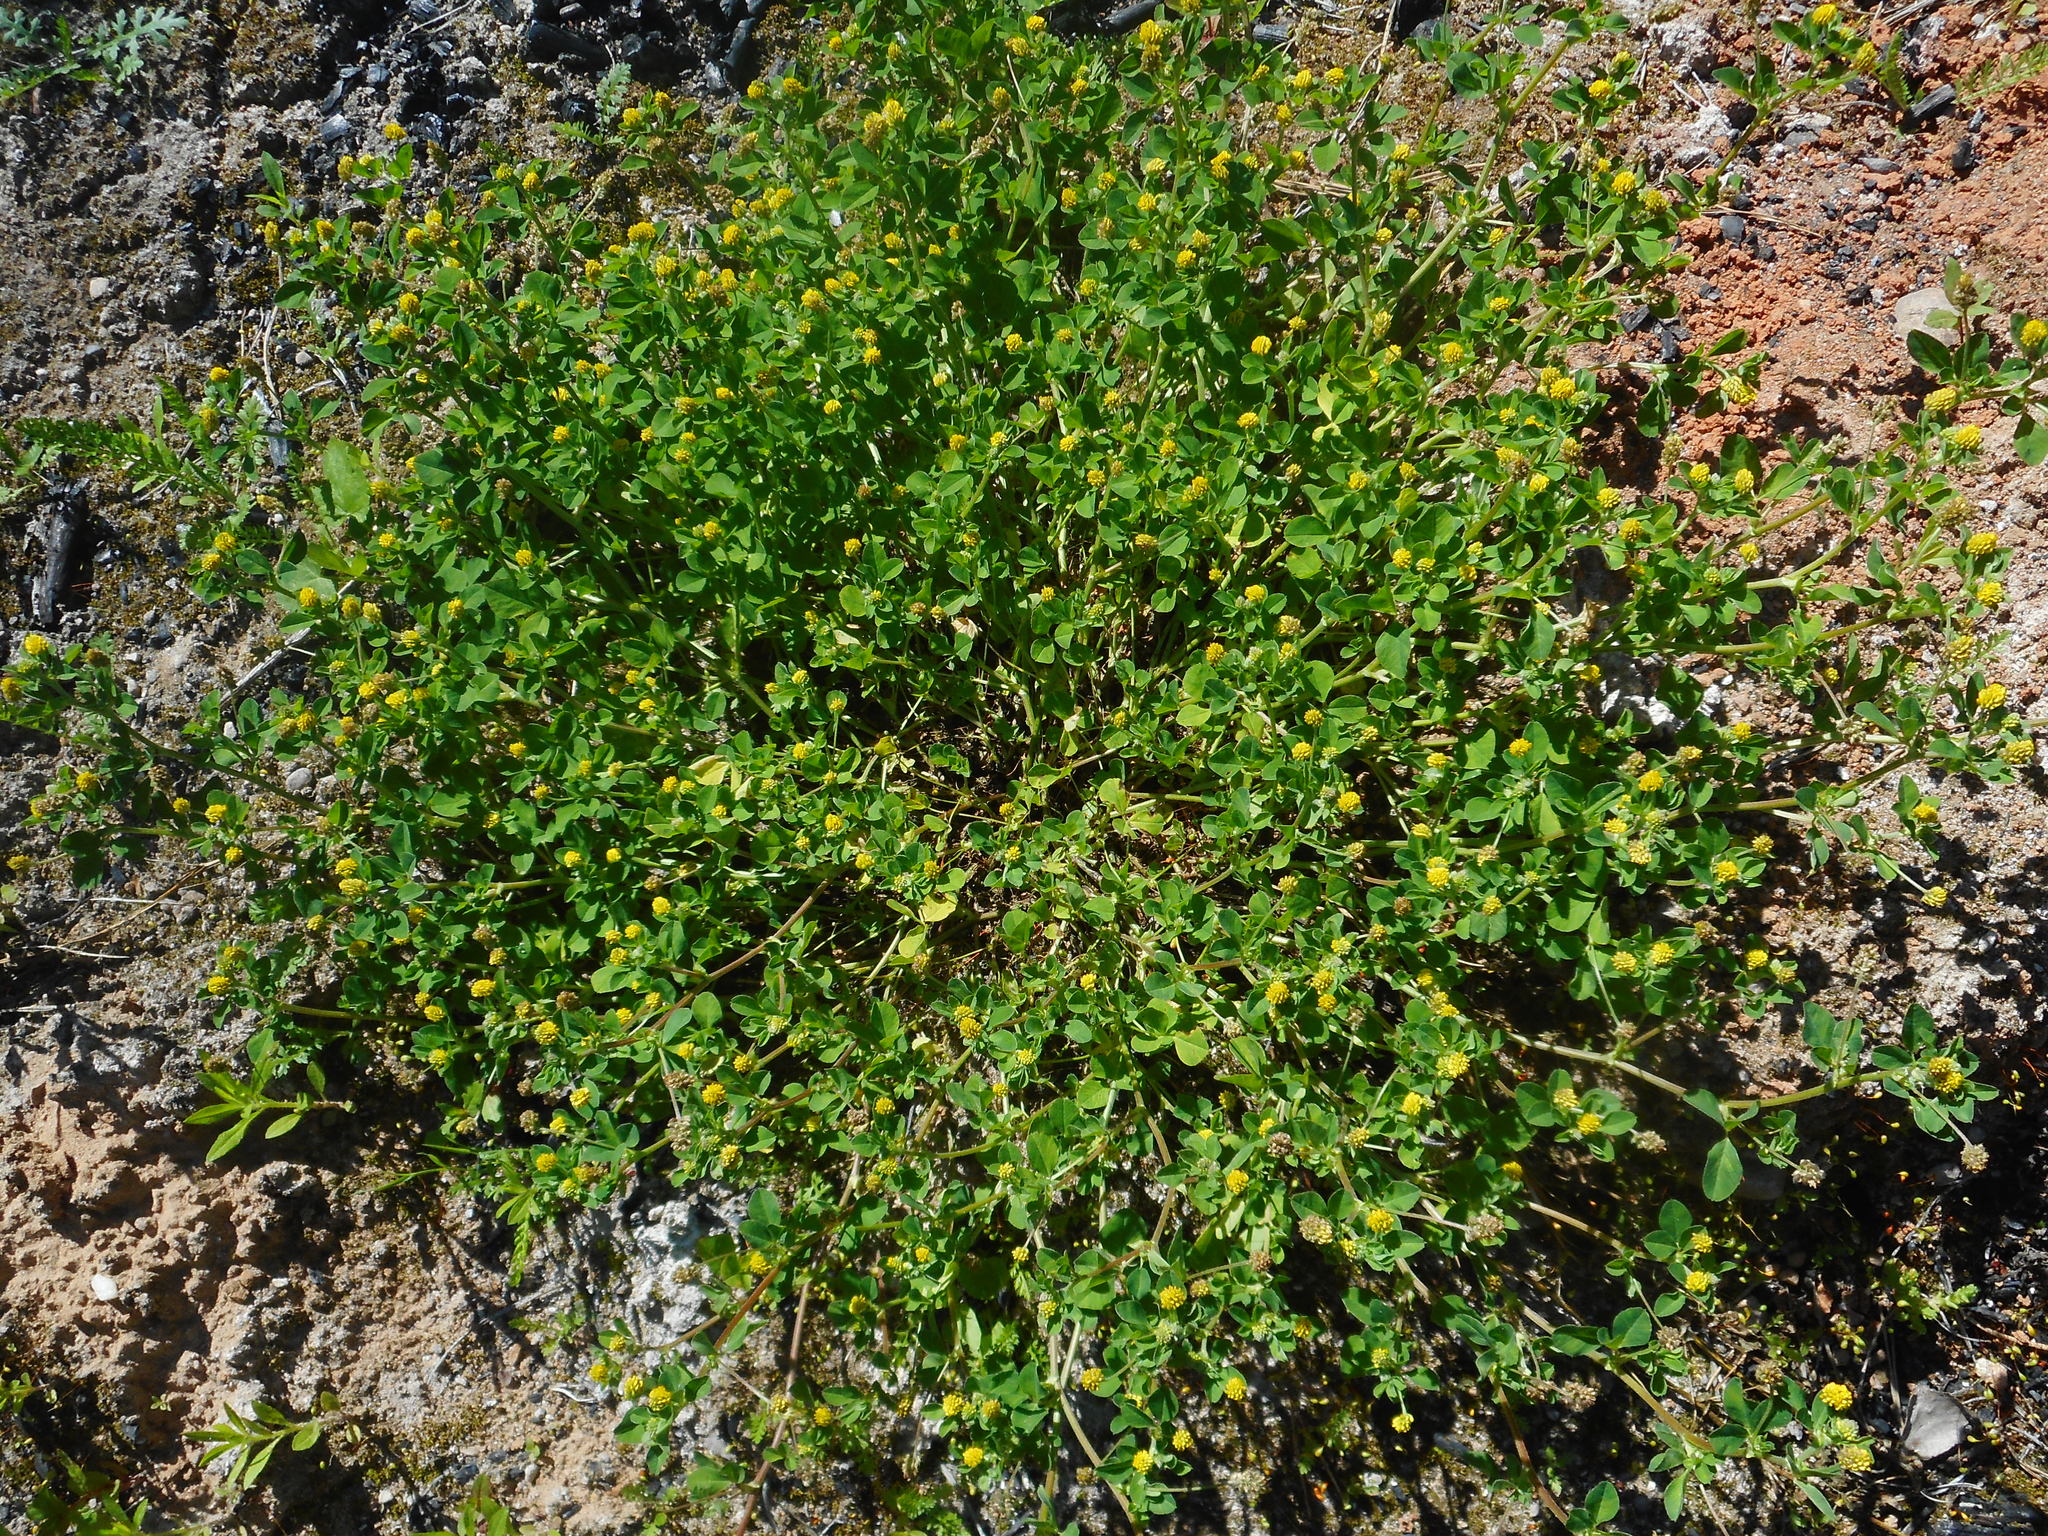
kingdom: Plantae
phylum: Tracheophyta
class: Magnoliopsida
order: Fabales
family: Fabaceae
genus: Medicago
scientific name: Medicago lupulina
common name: Black medick
